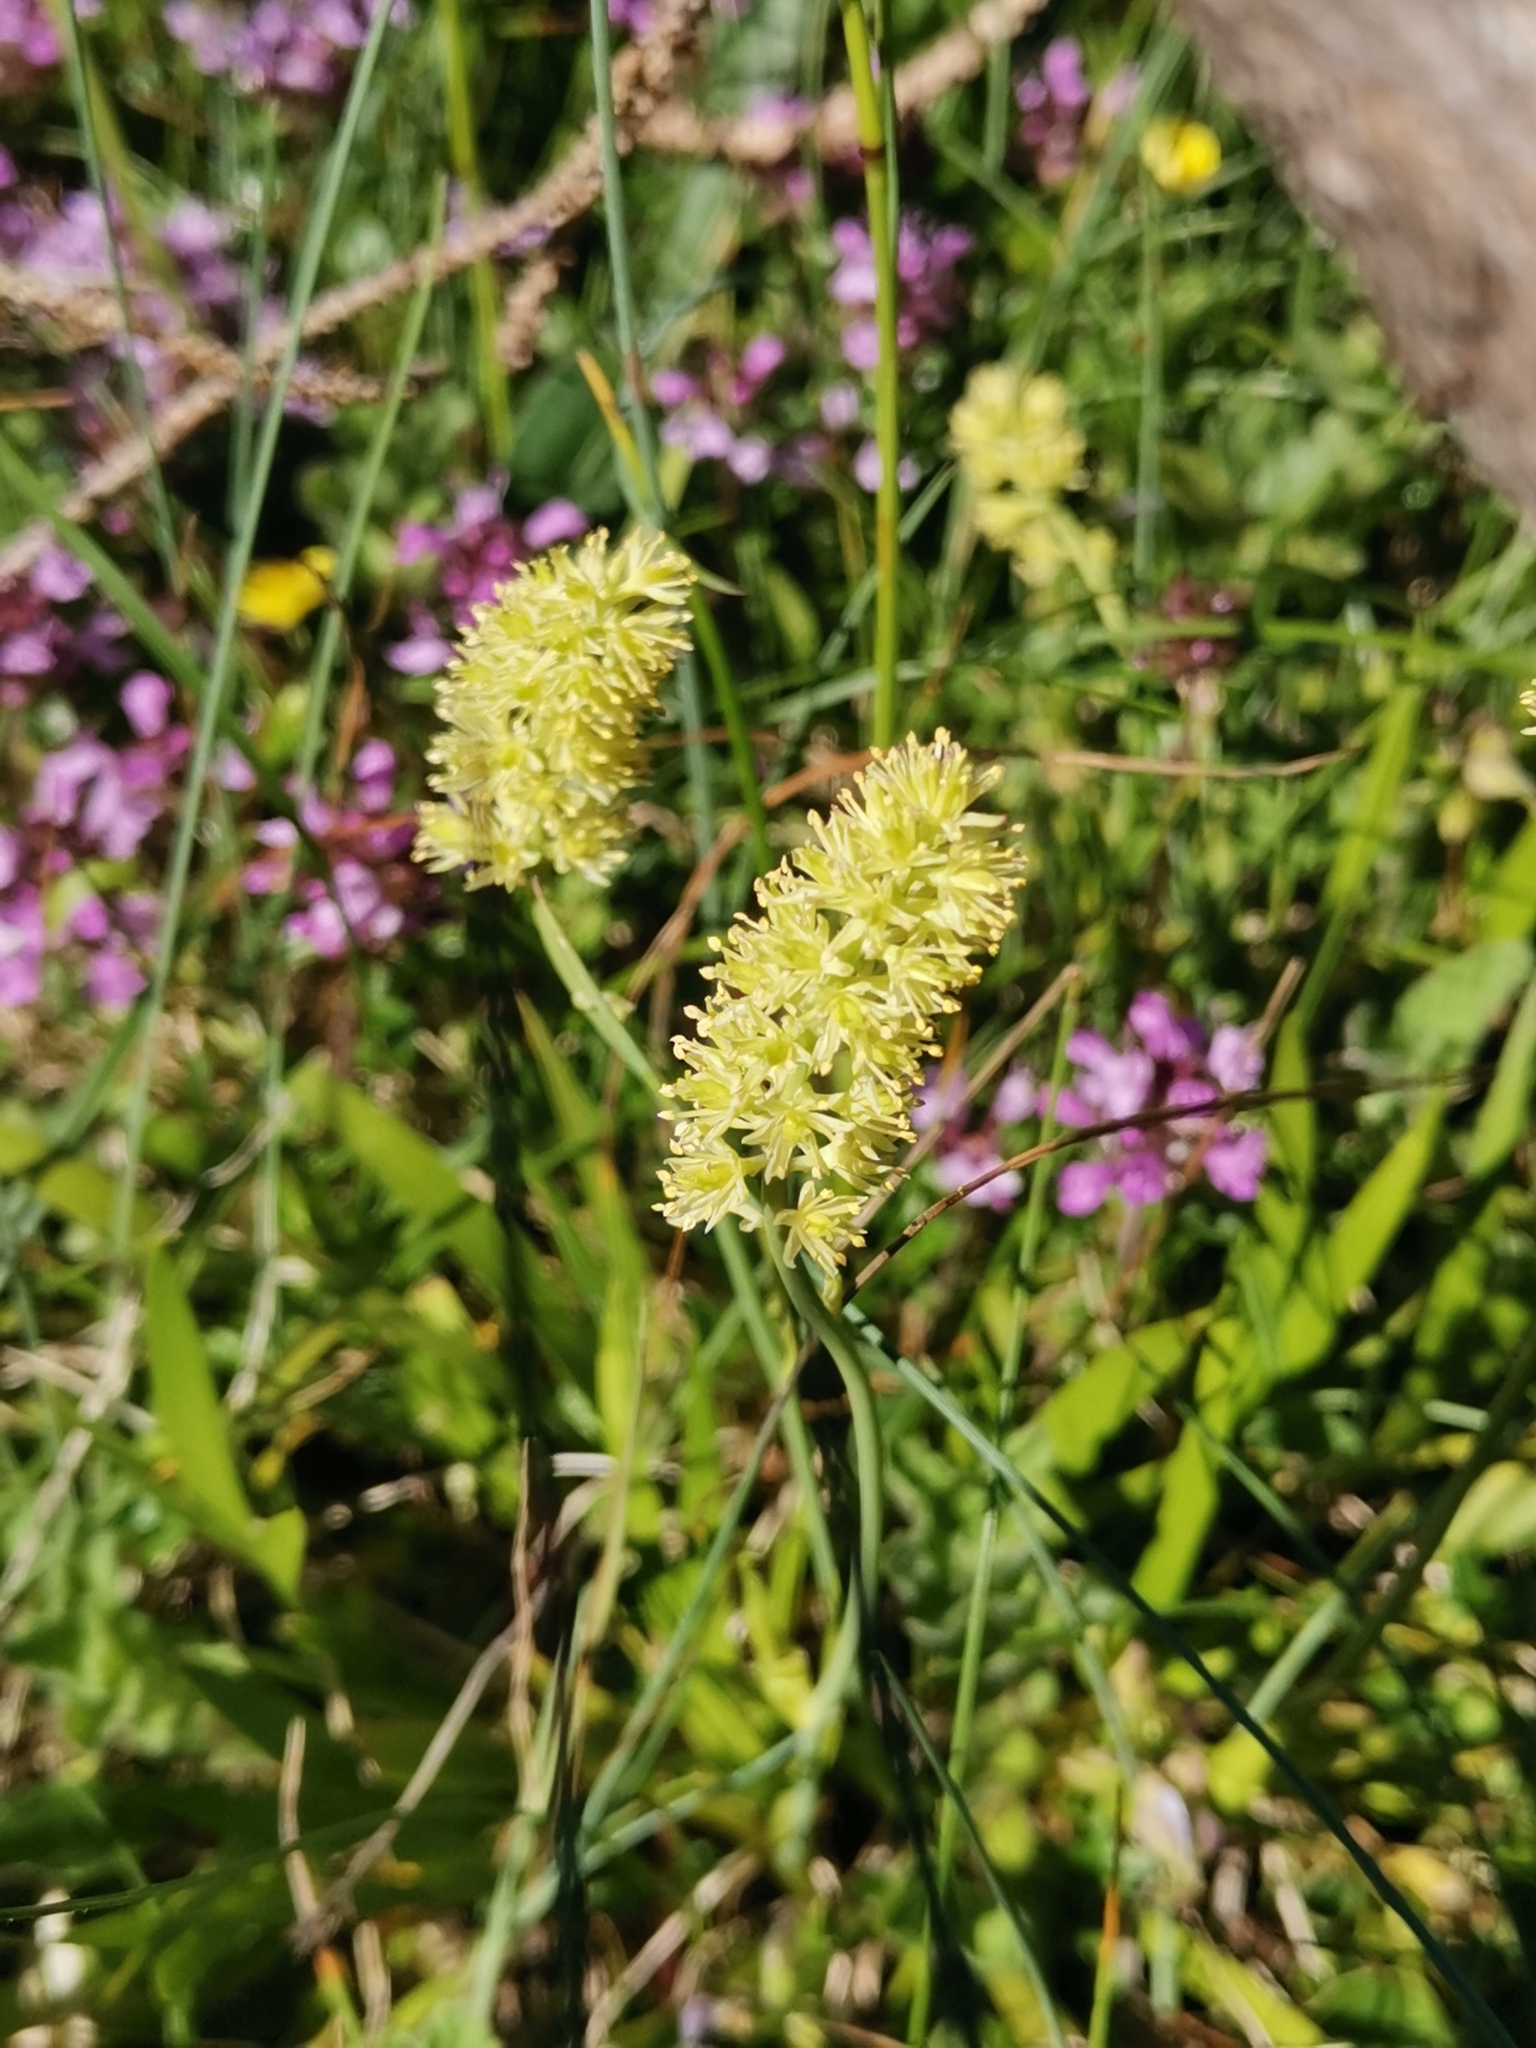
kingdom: Plantae
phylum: Tracheophyta
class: Liliopsida
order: Alismatales
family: Tofieldiaceae
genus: Tofieldia
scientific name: Tofieldia calyculata
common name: German-asphodel
